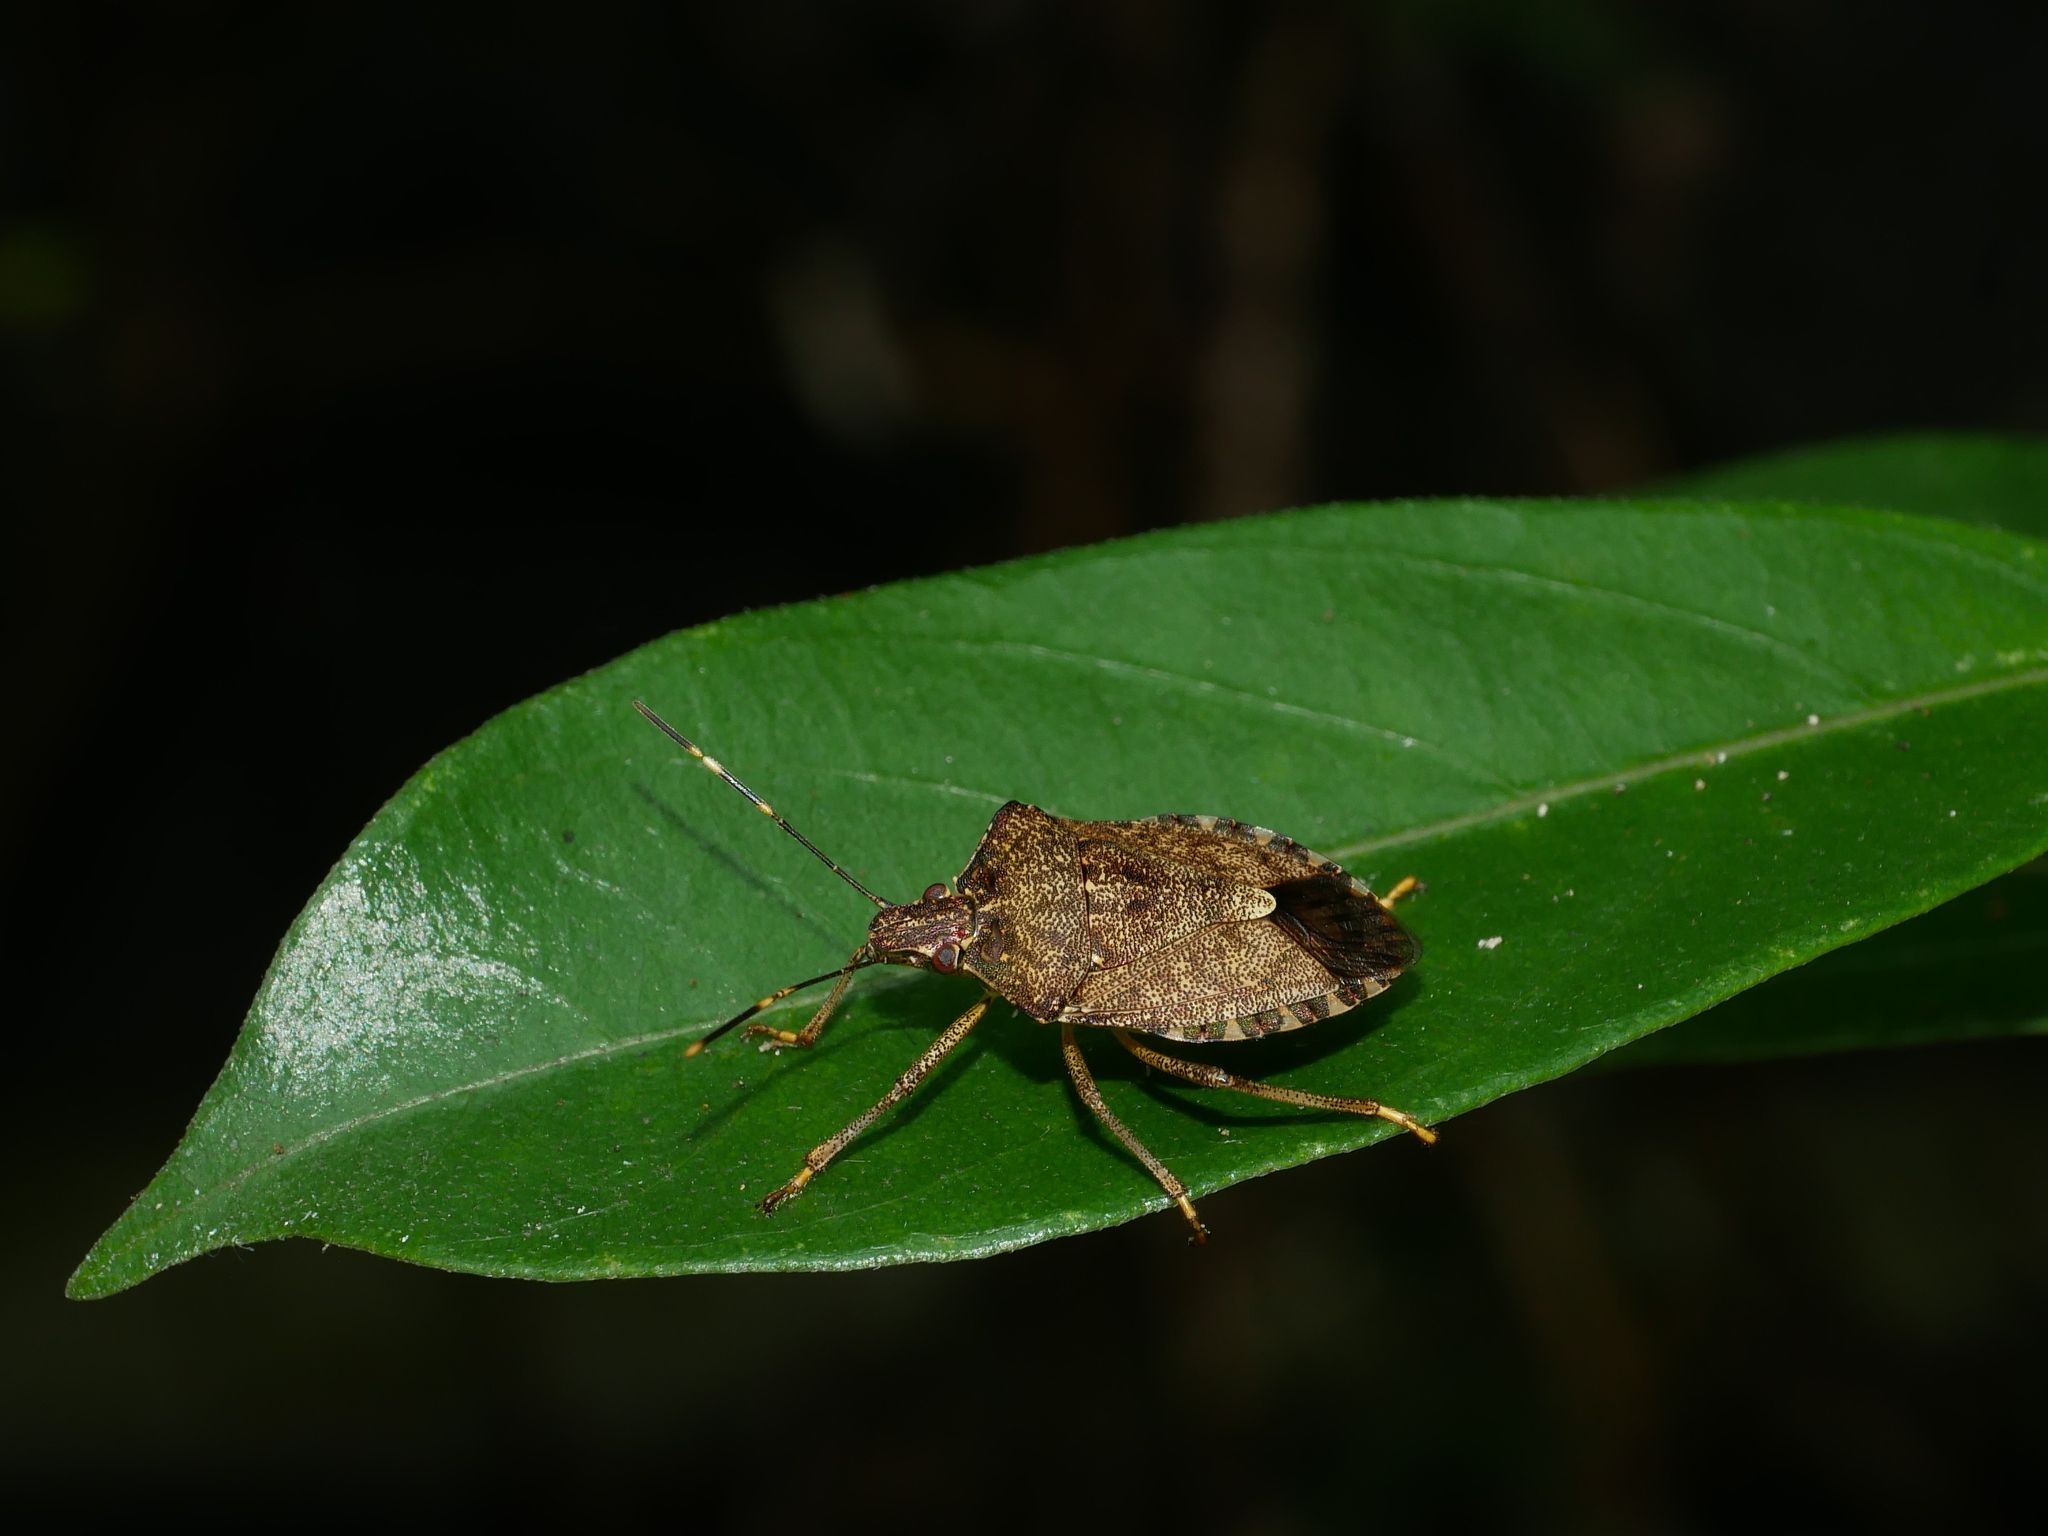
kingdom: Animalia
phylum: Arthropoda
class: Insecta
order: Hemiptera
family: Pentatomidae
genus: Halyomorpha
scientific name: Halyomorpha halys
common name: Brown marmorated stink bug
